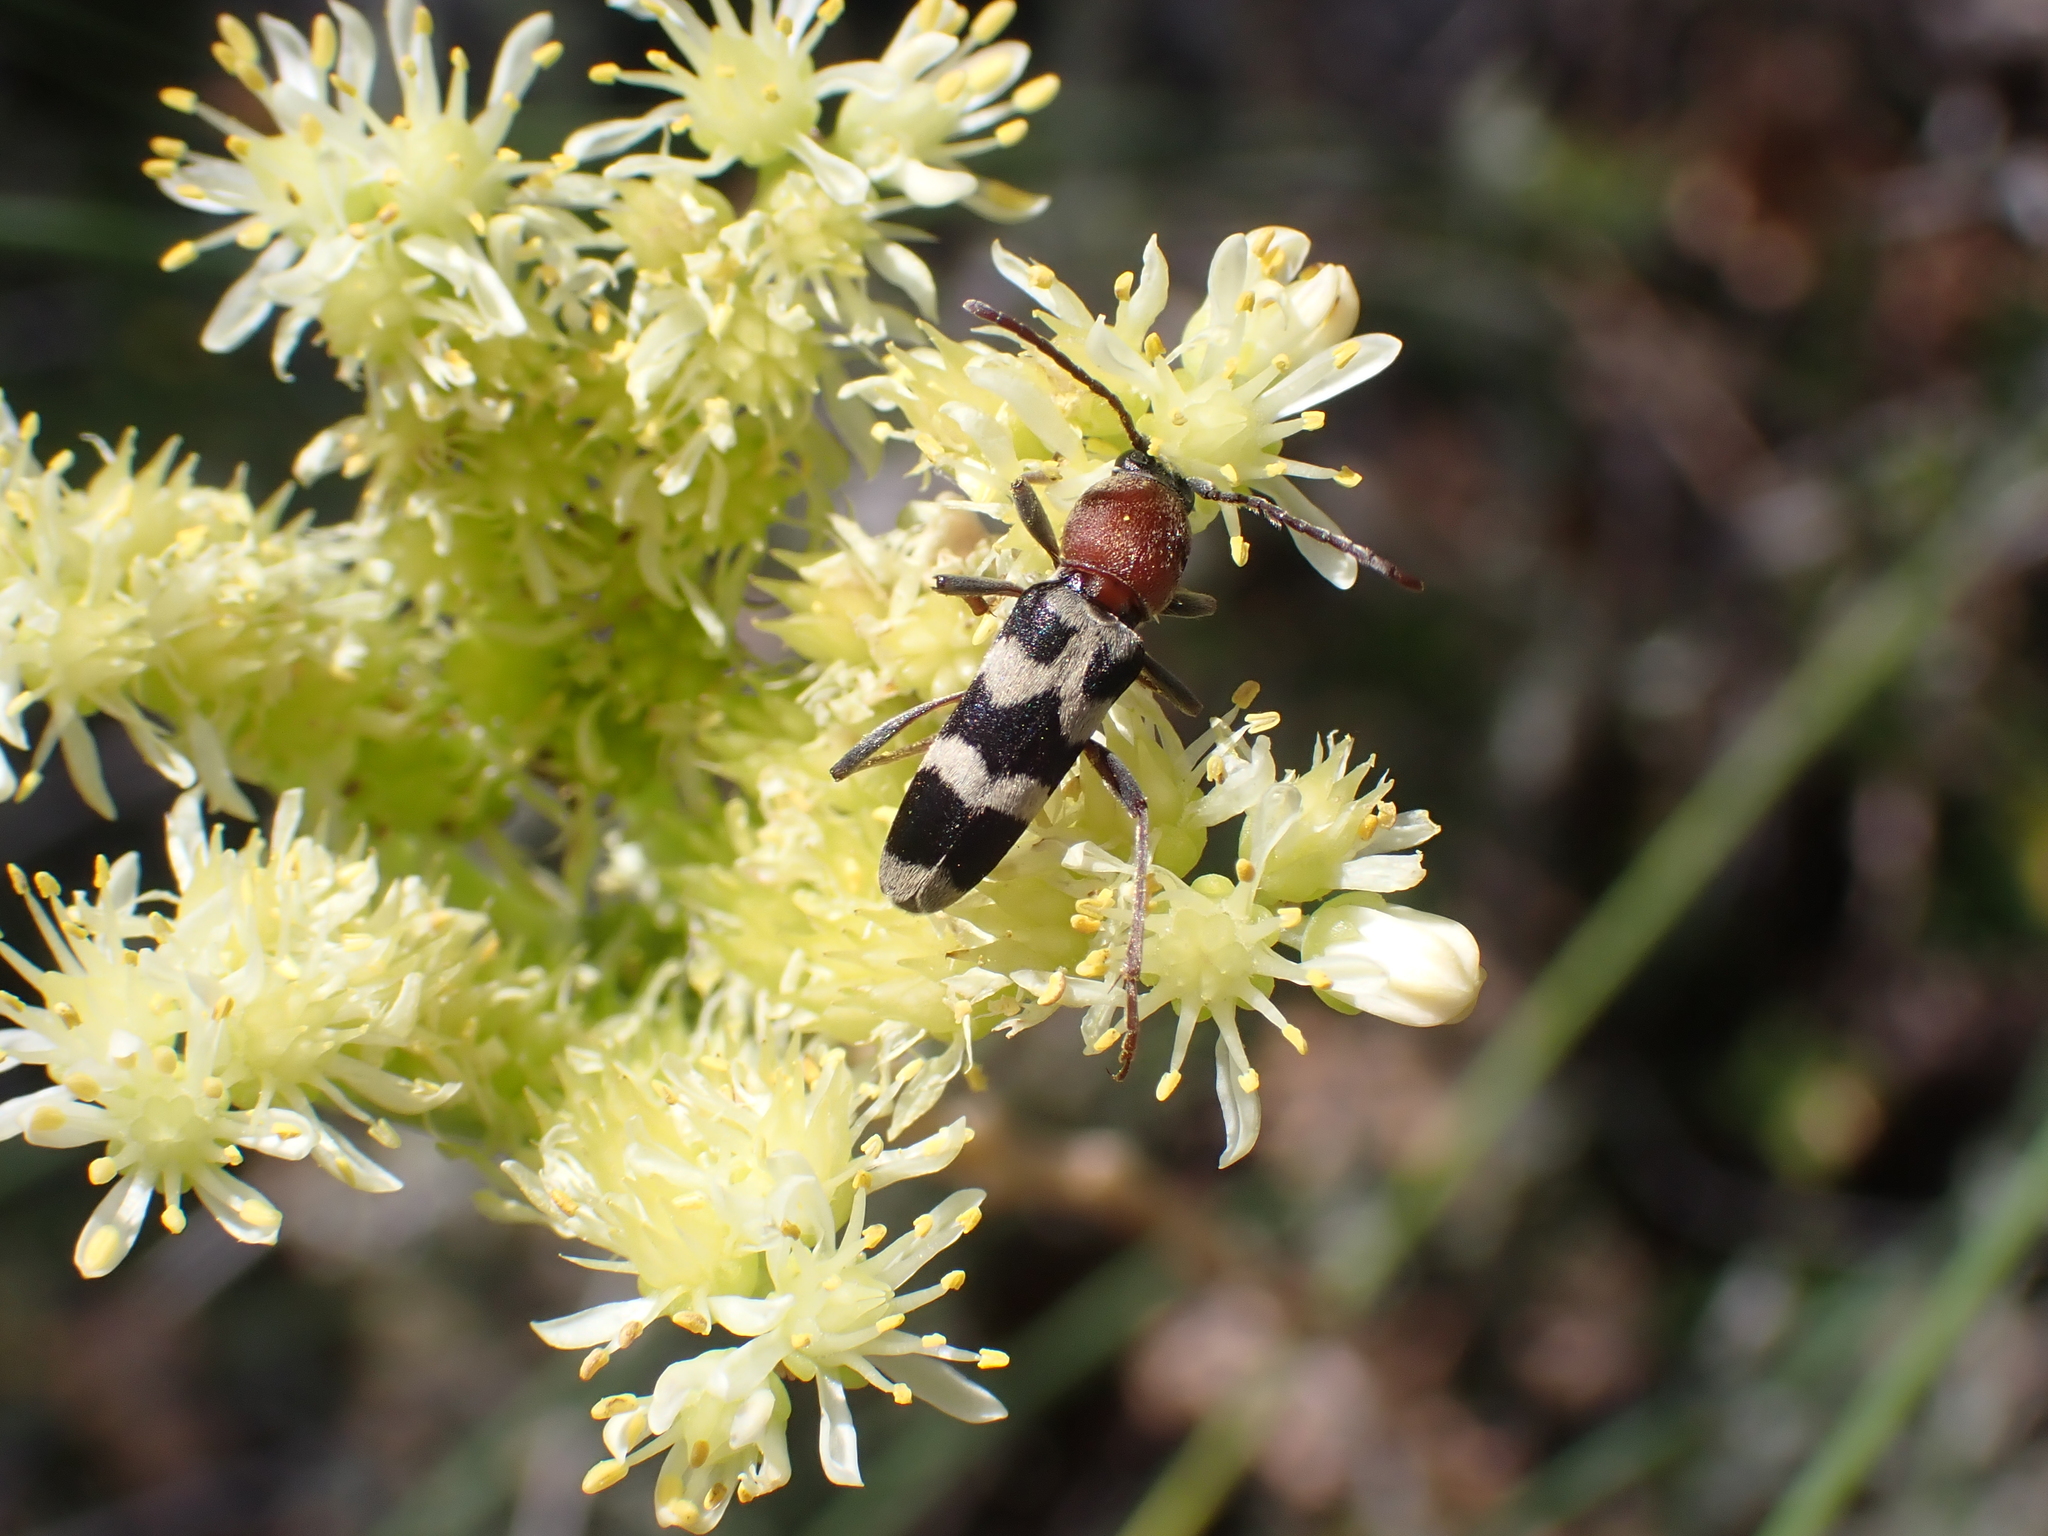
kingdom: Animalia
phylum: Arthropoda
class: Insecta
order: Coleoptera
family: Cerambycidae
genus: Chlorophorus
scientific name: Chlorophorus trifasciatus
